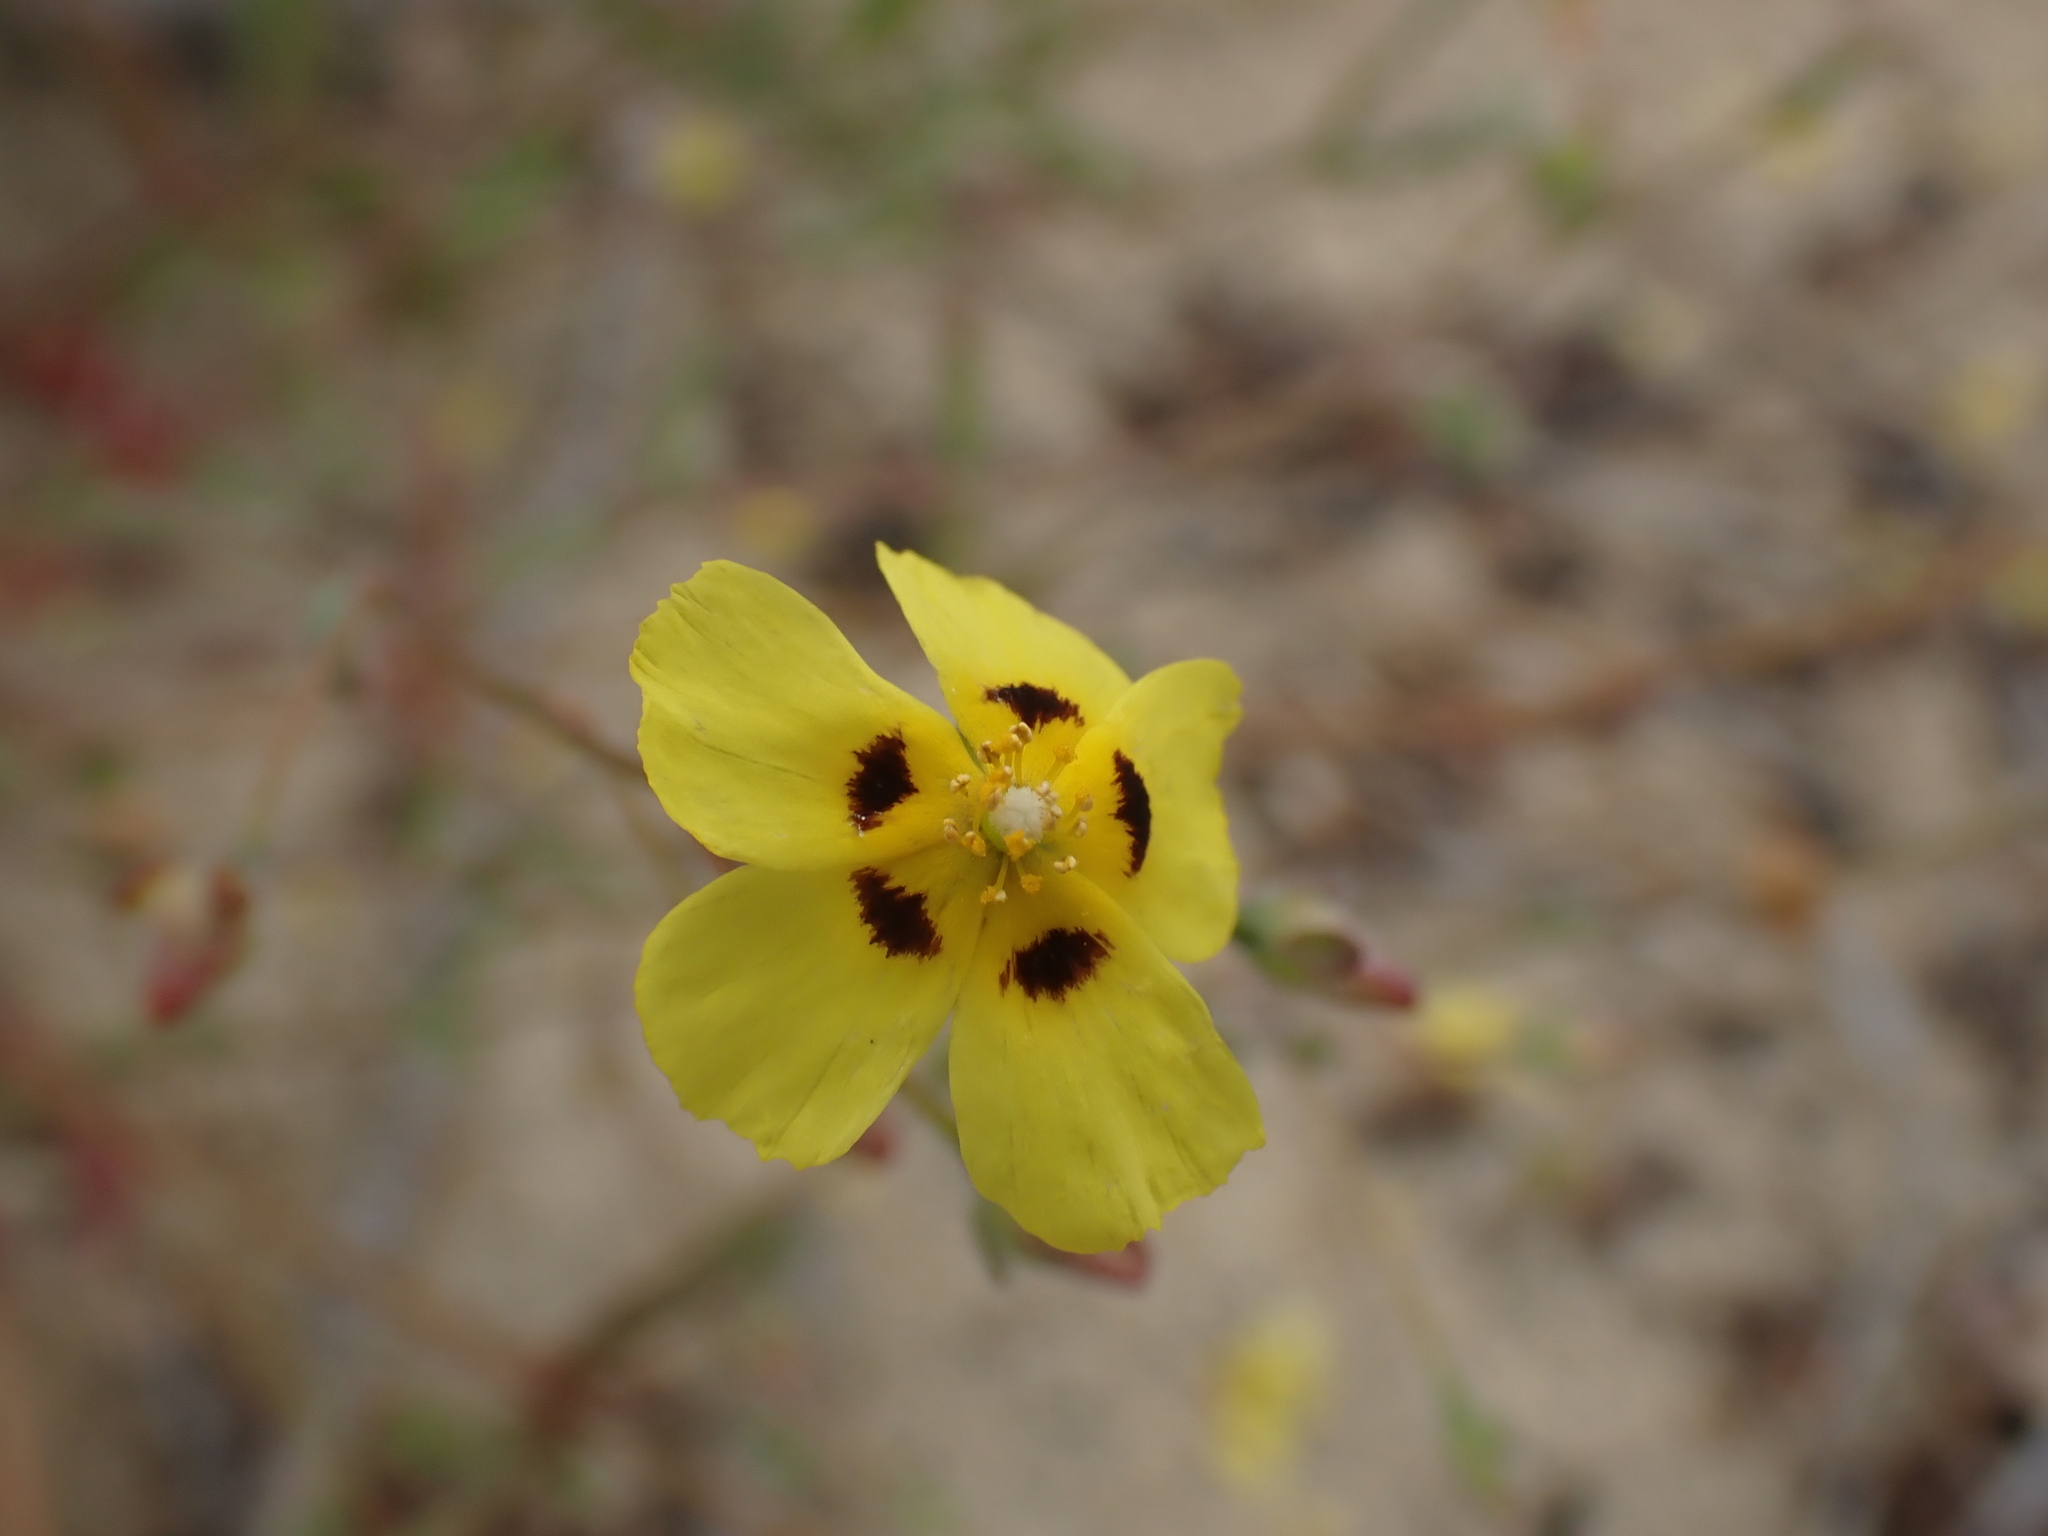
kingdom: Plantae
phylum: Tracheophyta
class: Magnoliopsida
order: Malvales
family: Cistaceae
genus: Tuberaria
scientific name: Tuberaria guttata
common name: Spotted rock-rose
